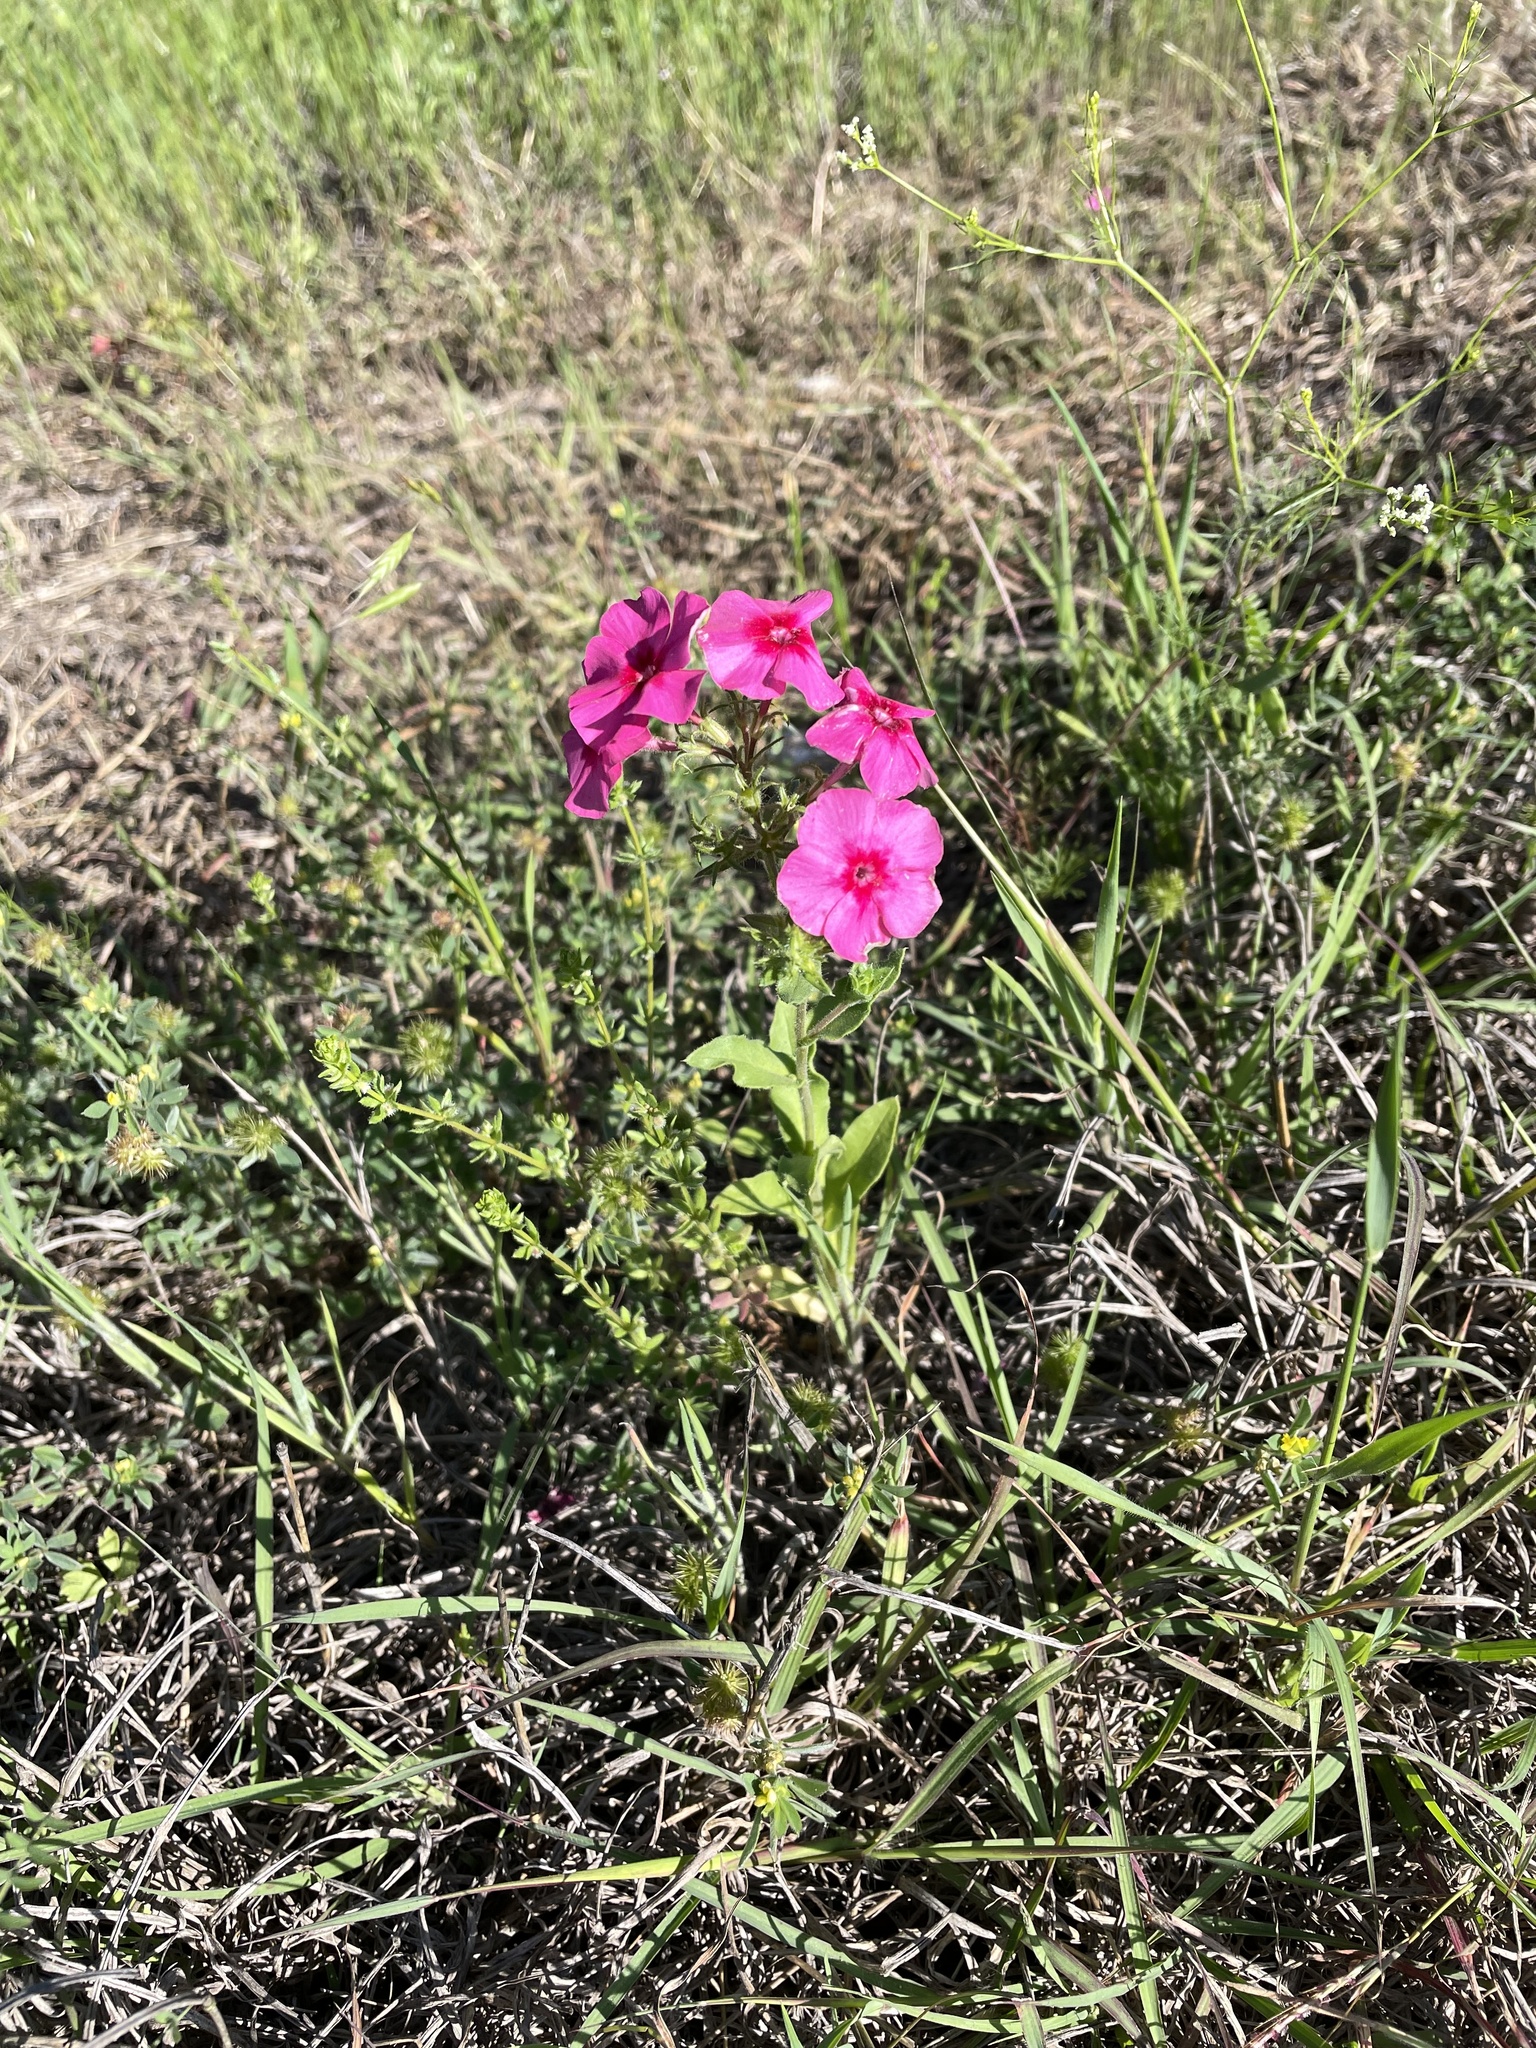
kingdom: Plantae
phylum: Tracheophyta
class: Magnoliopsida
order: Ericales
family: Polemoniaceae
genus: Phlox
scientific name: Phlox drummondii
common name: Drummond's phlox
